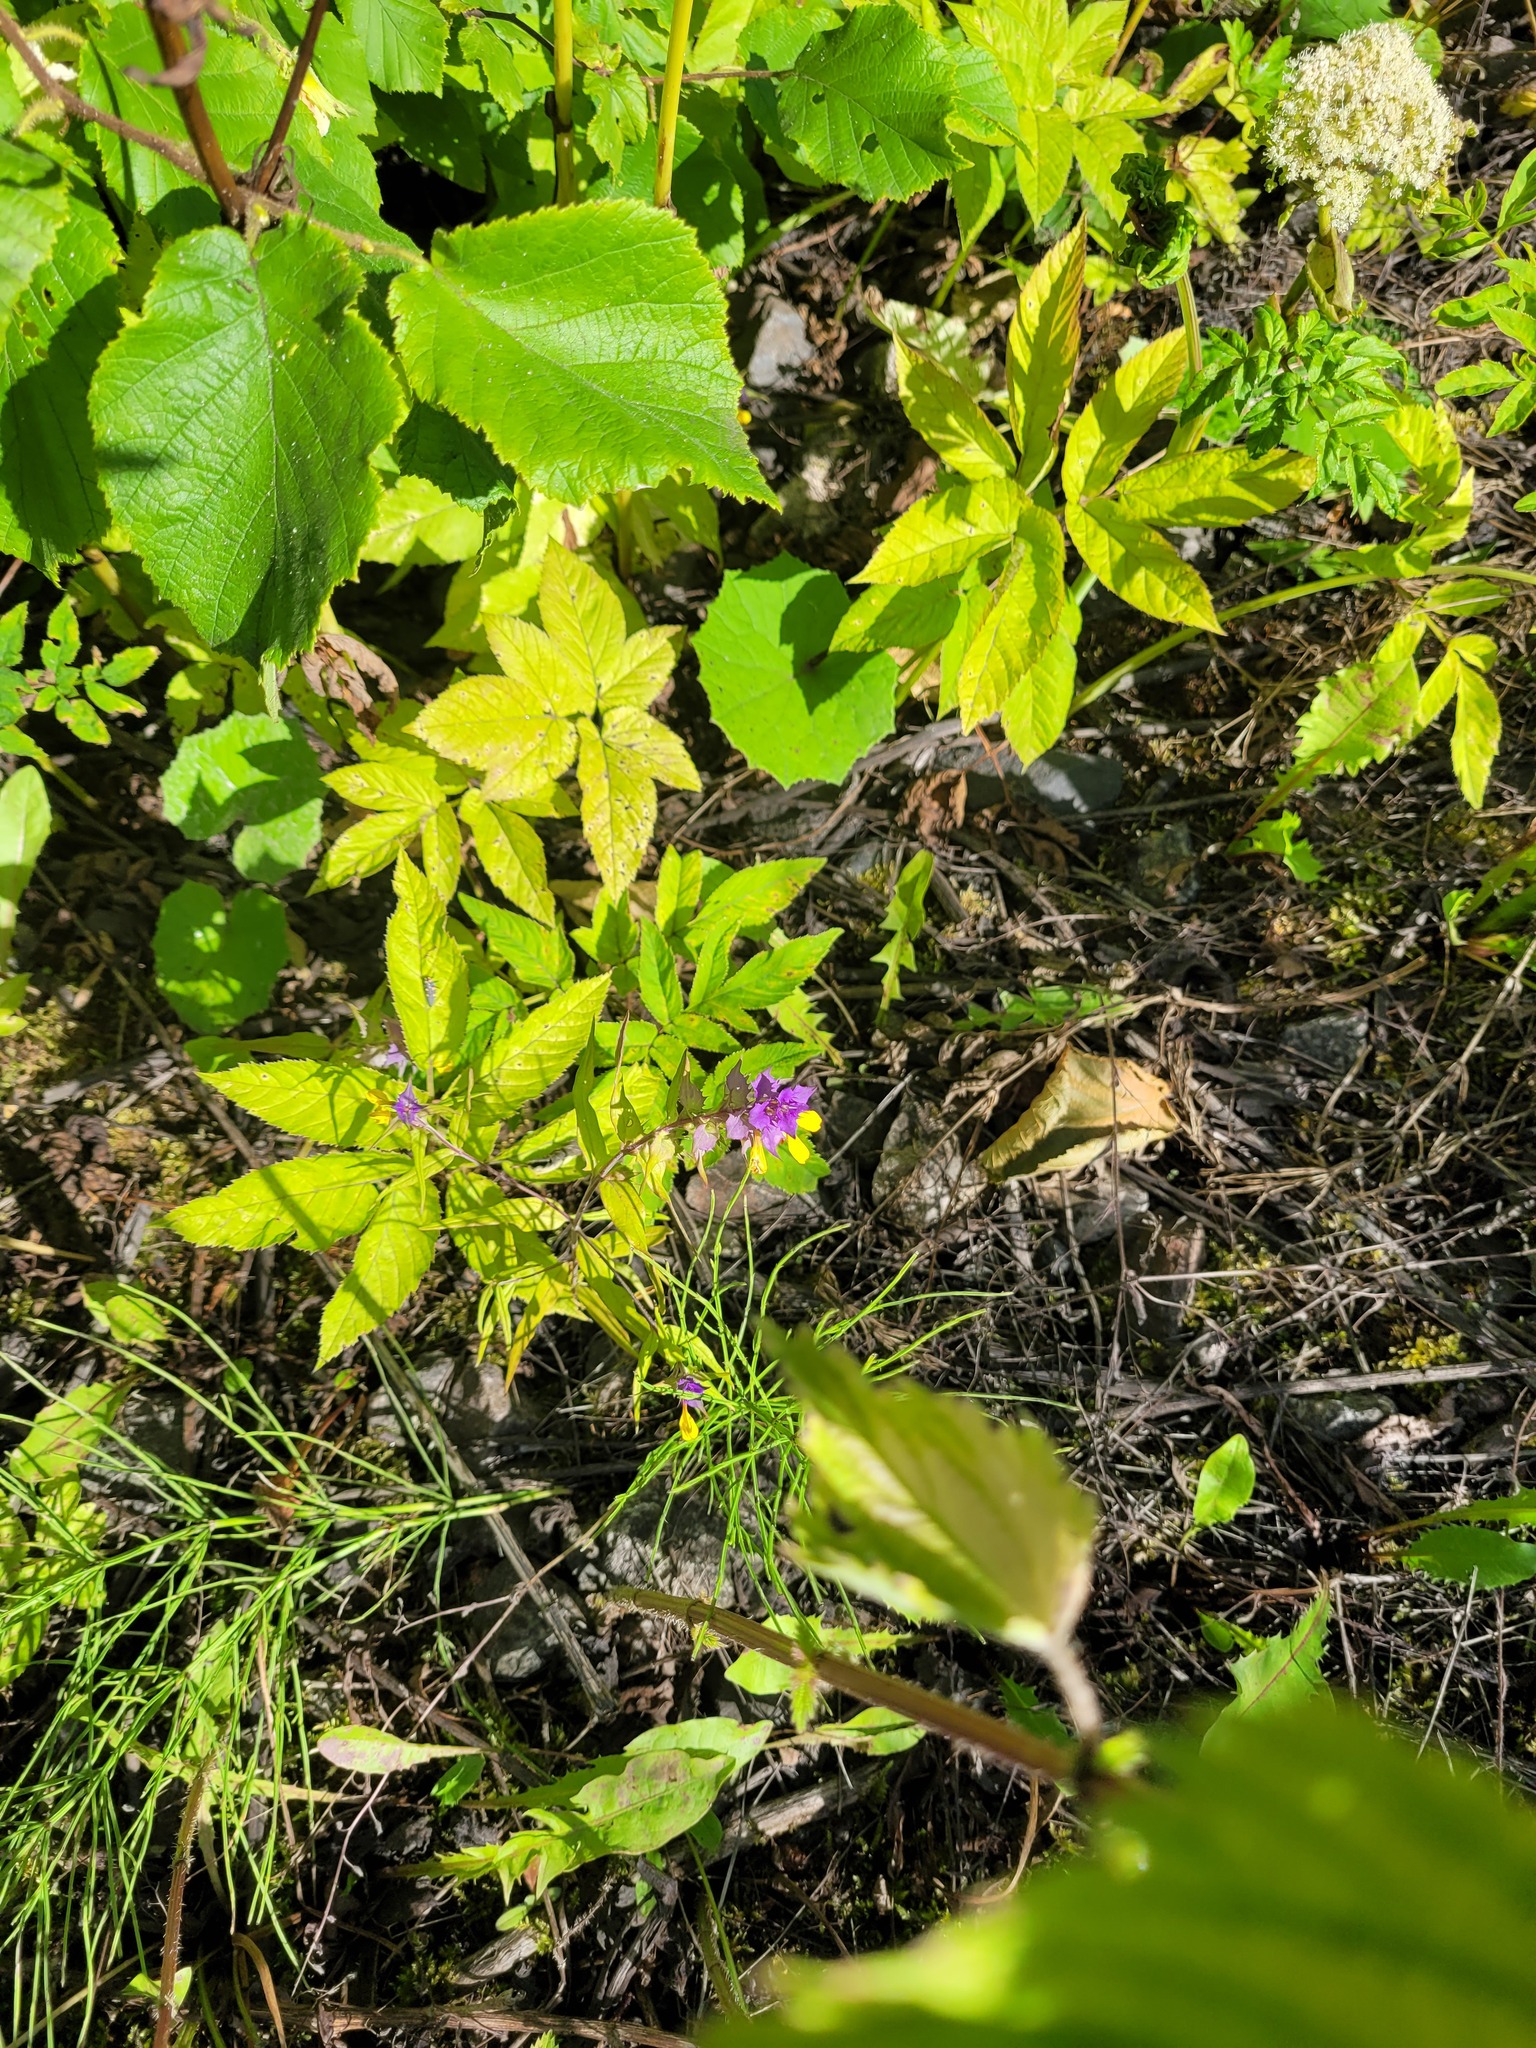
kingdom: Plantae
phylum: Tracheophyta
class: Magnoliopsida
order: Lamiales
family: Orobanchaceae
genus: Melampyrum
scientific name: Melampyrum nemorosum
